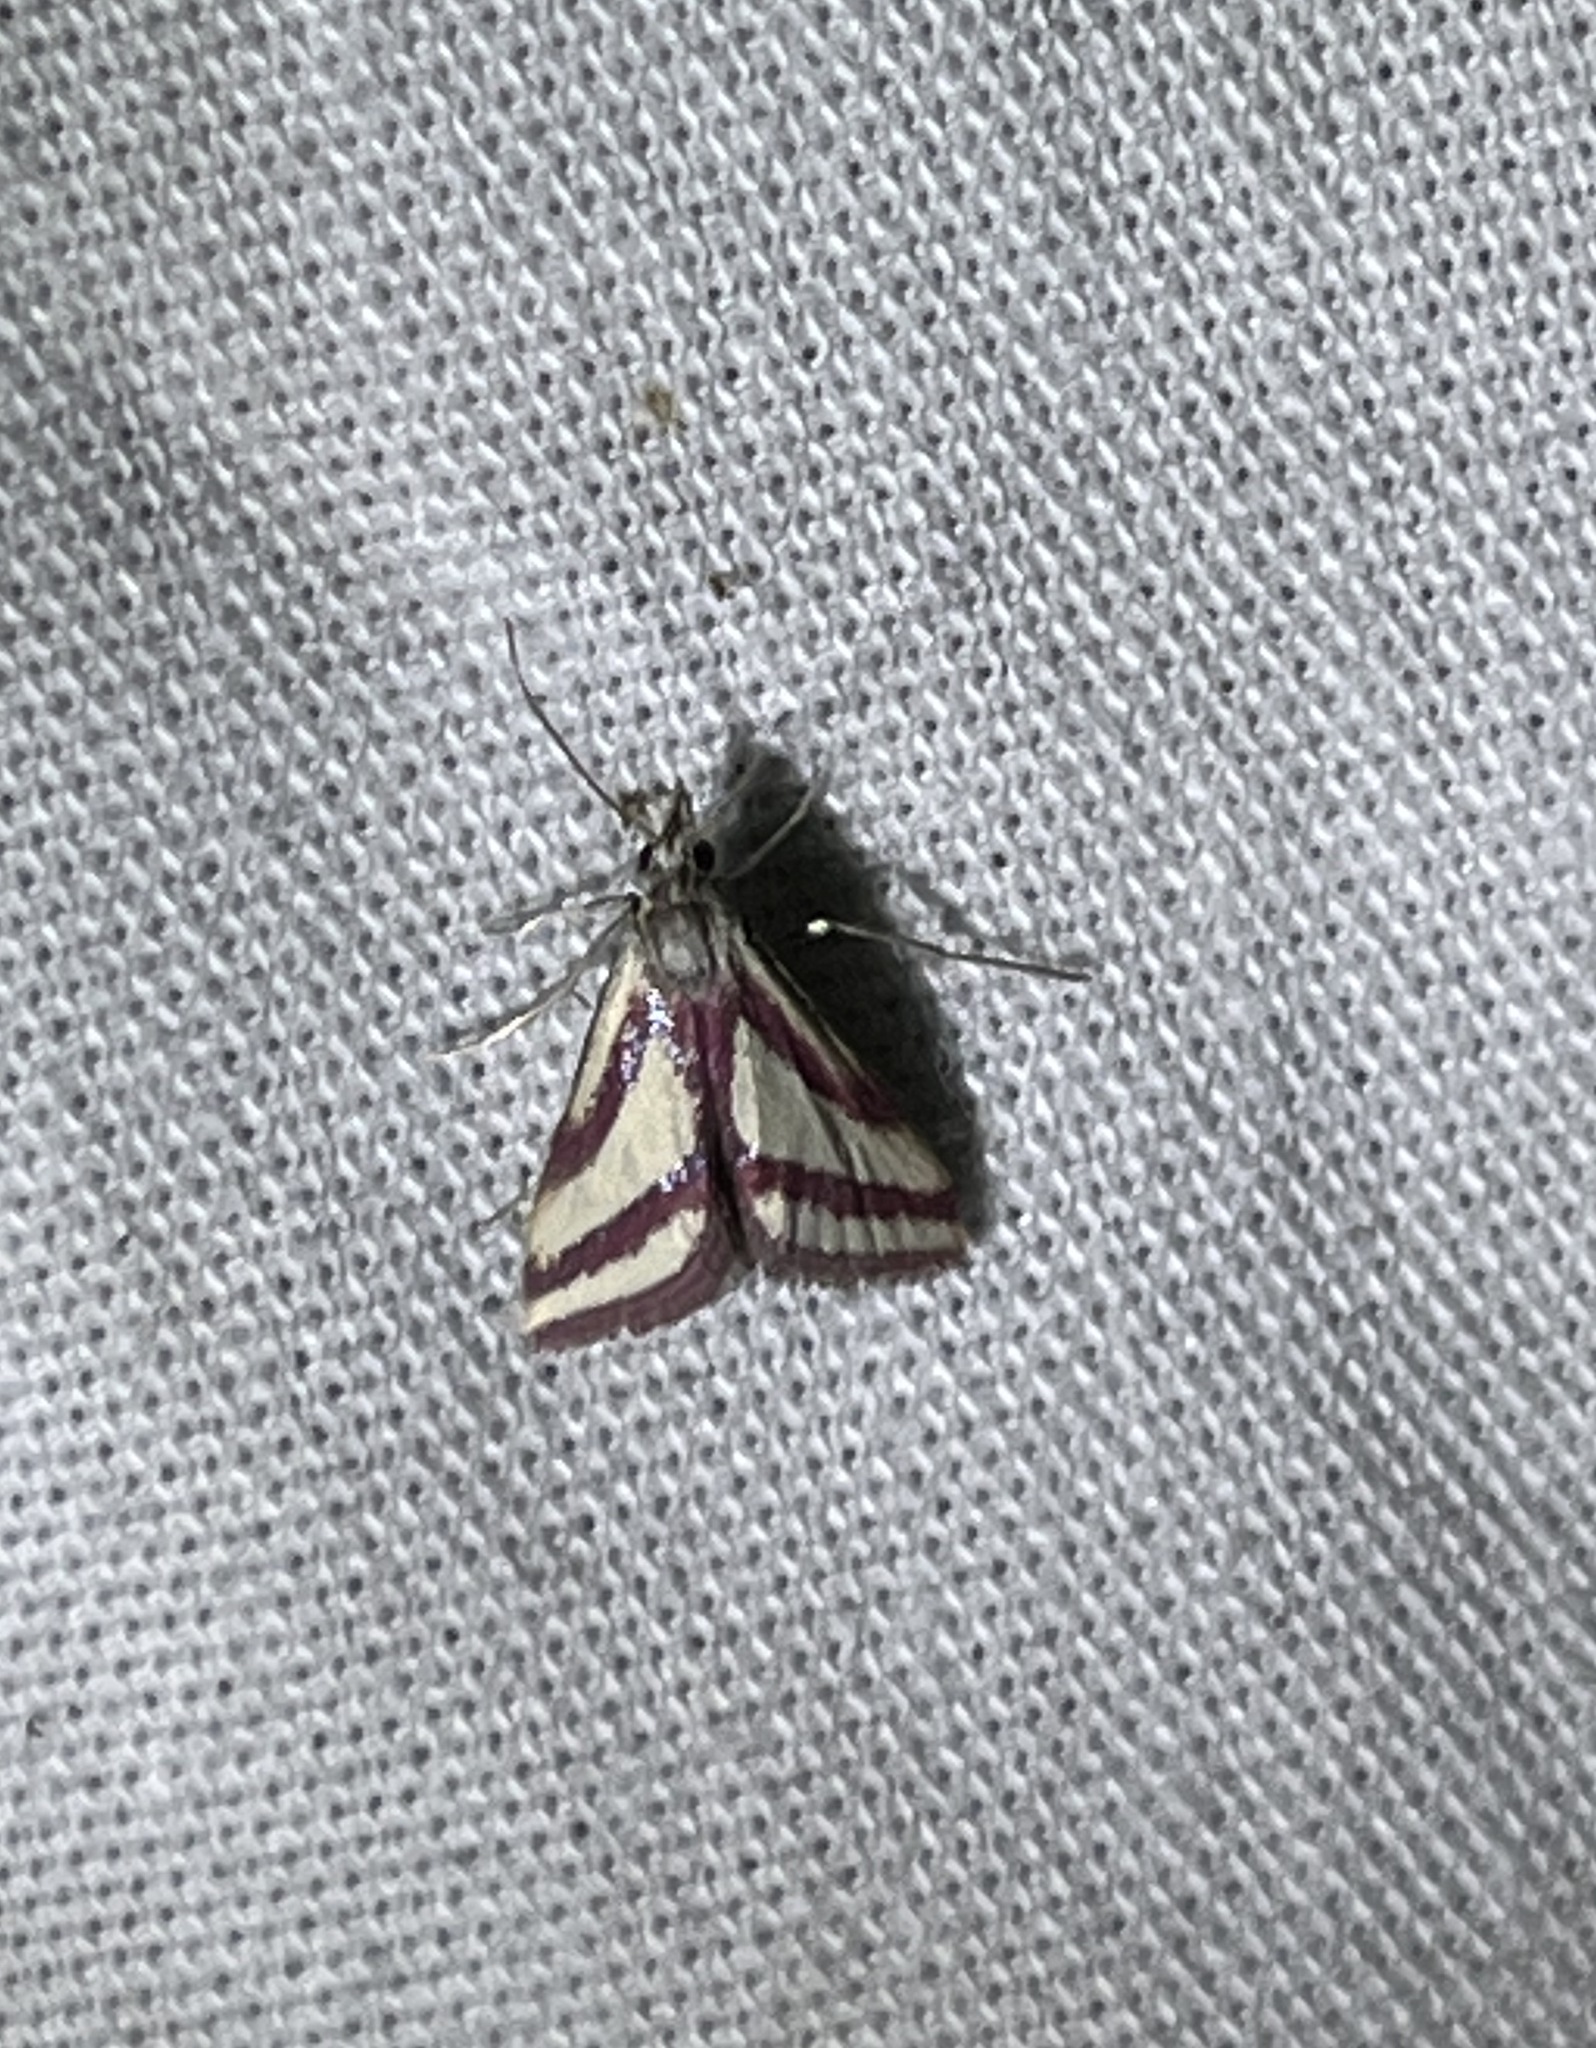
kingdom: Animalia
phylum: Arthropoda
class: Insecta
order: Lepidoptera
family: Crambidae
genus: Microtheoris
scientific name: Microtheoris vibicalis
